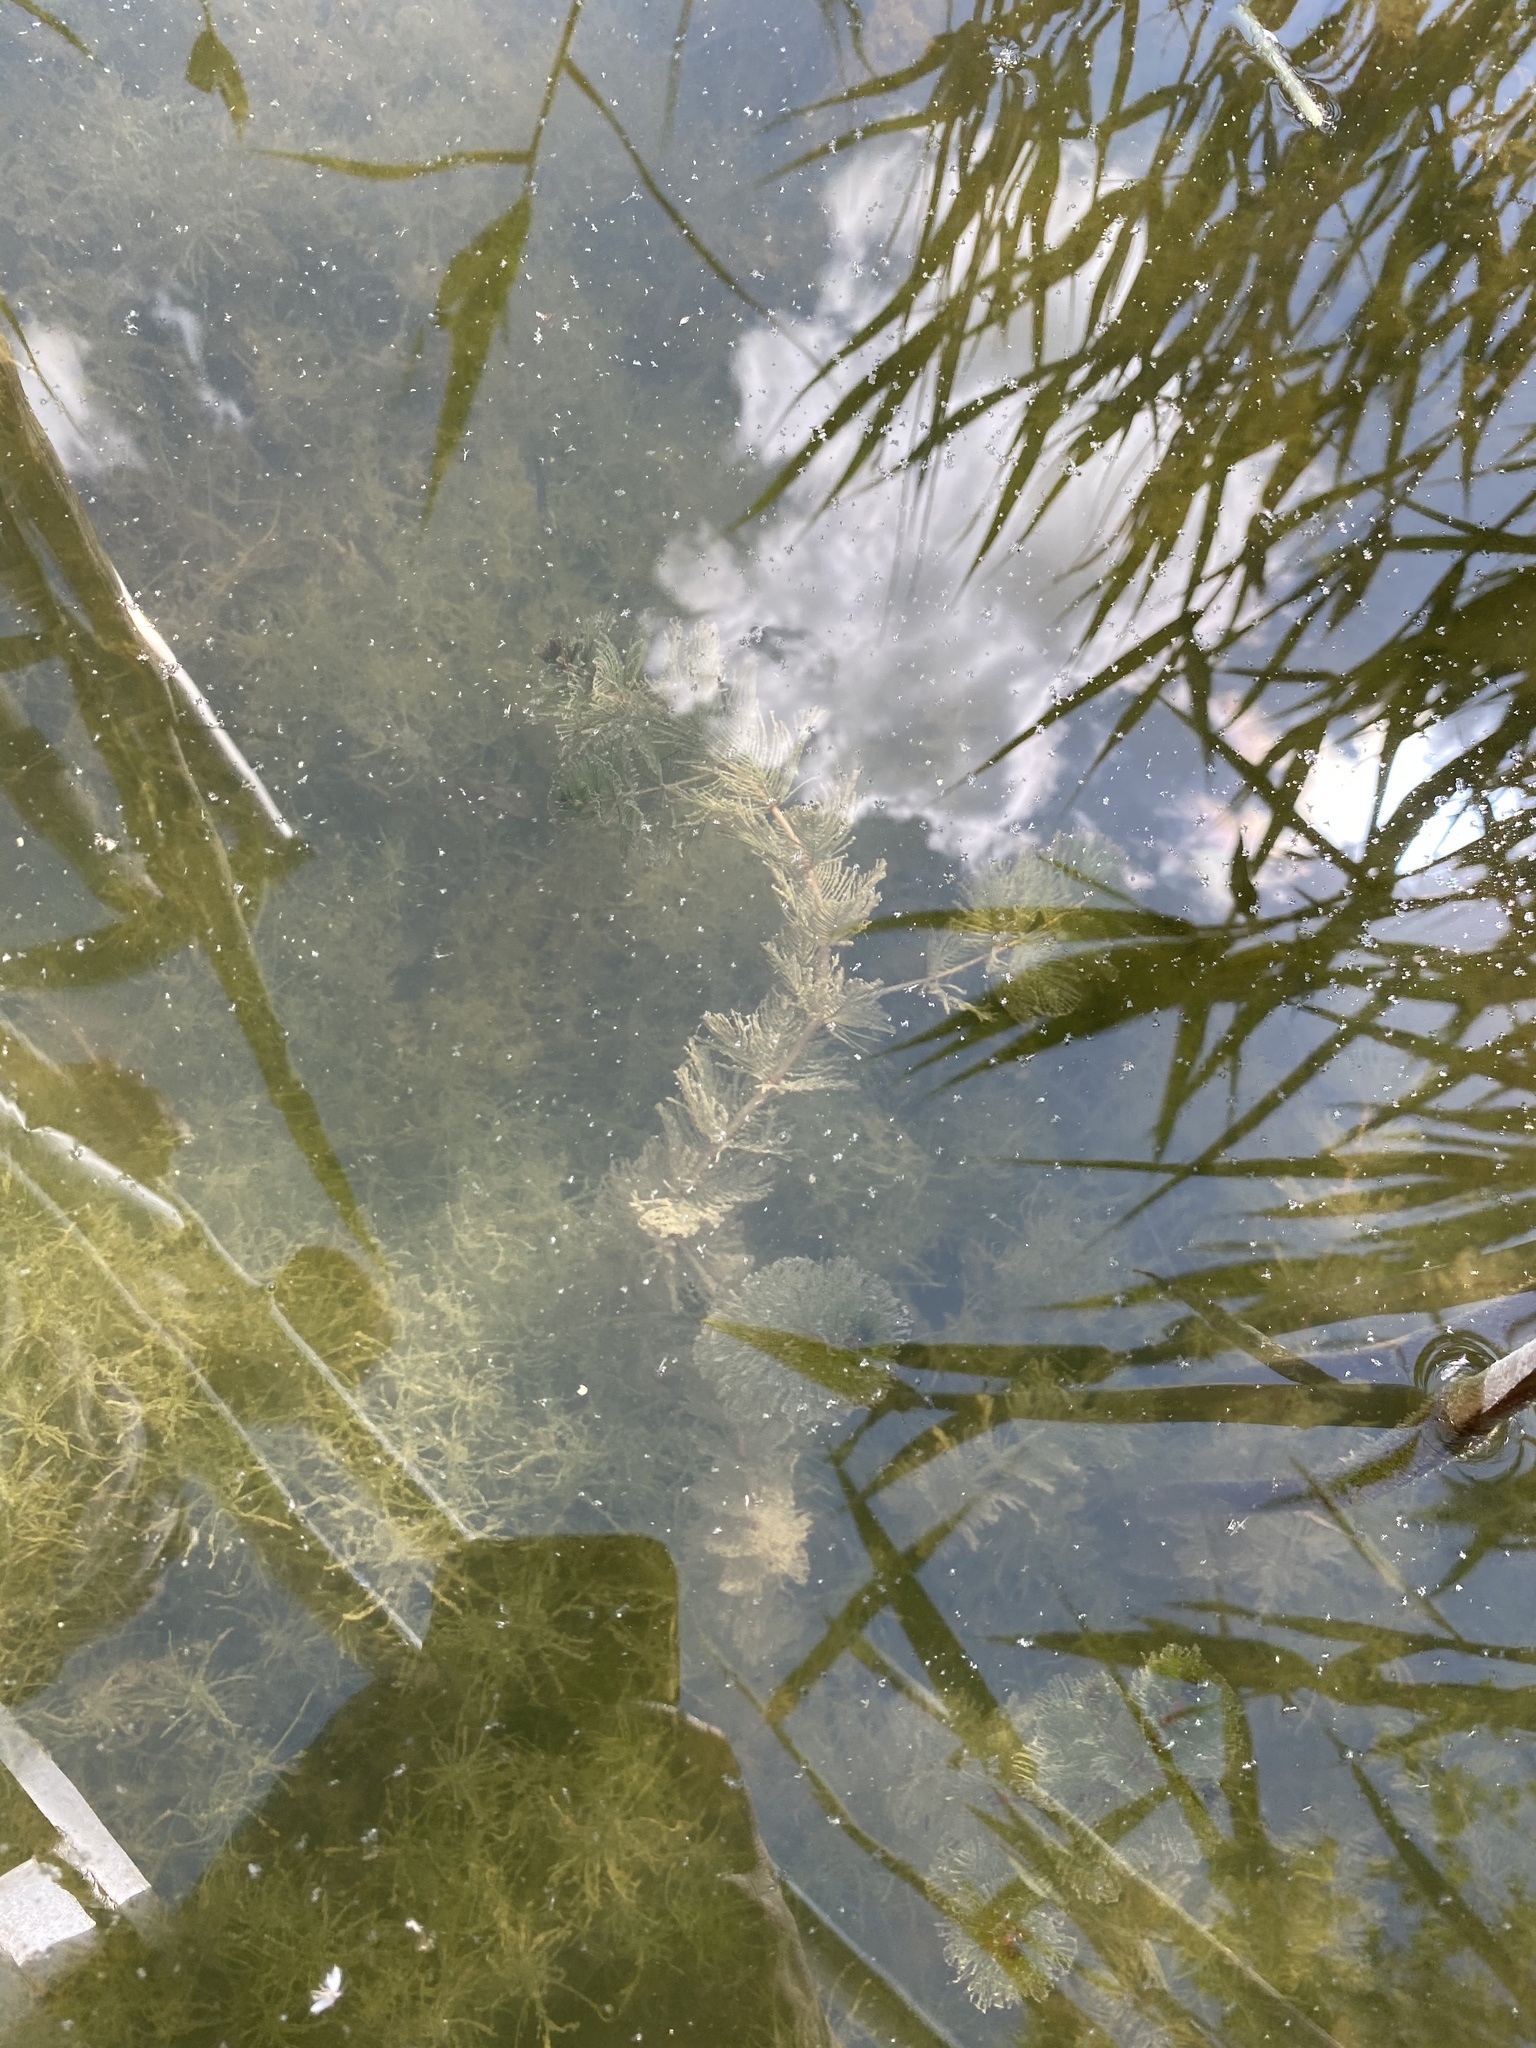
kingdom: Plantae
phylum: Tracheophyta
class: Magnoliopsida
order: Saxifragales
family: Haloragaceae
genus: Myriophyllum
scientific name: Myriophyllum spicatum
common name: Spiked water-milfoil
